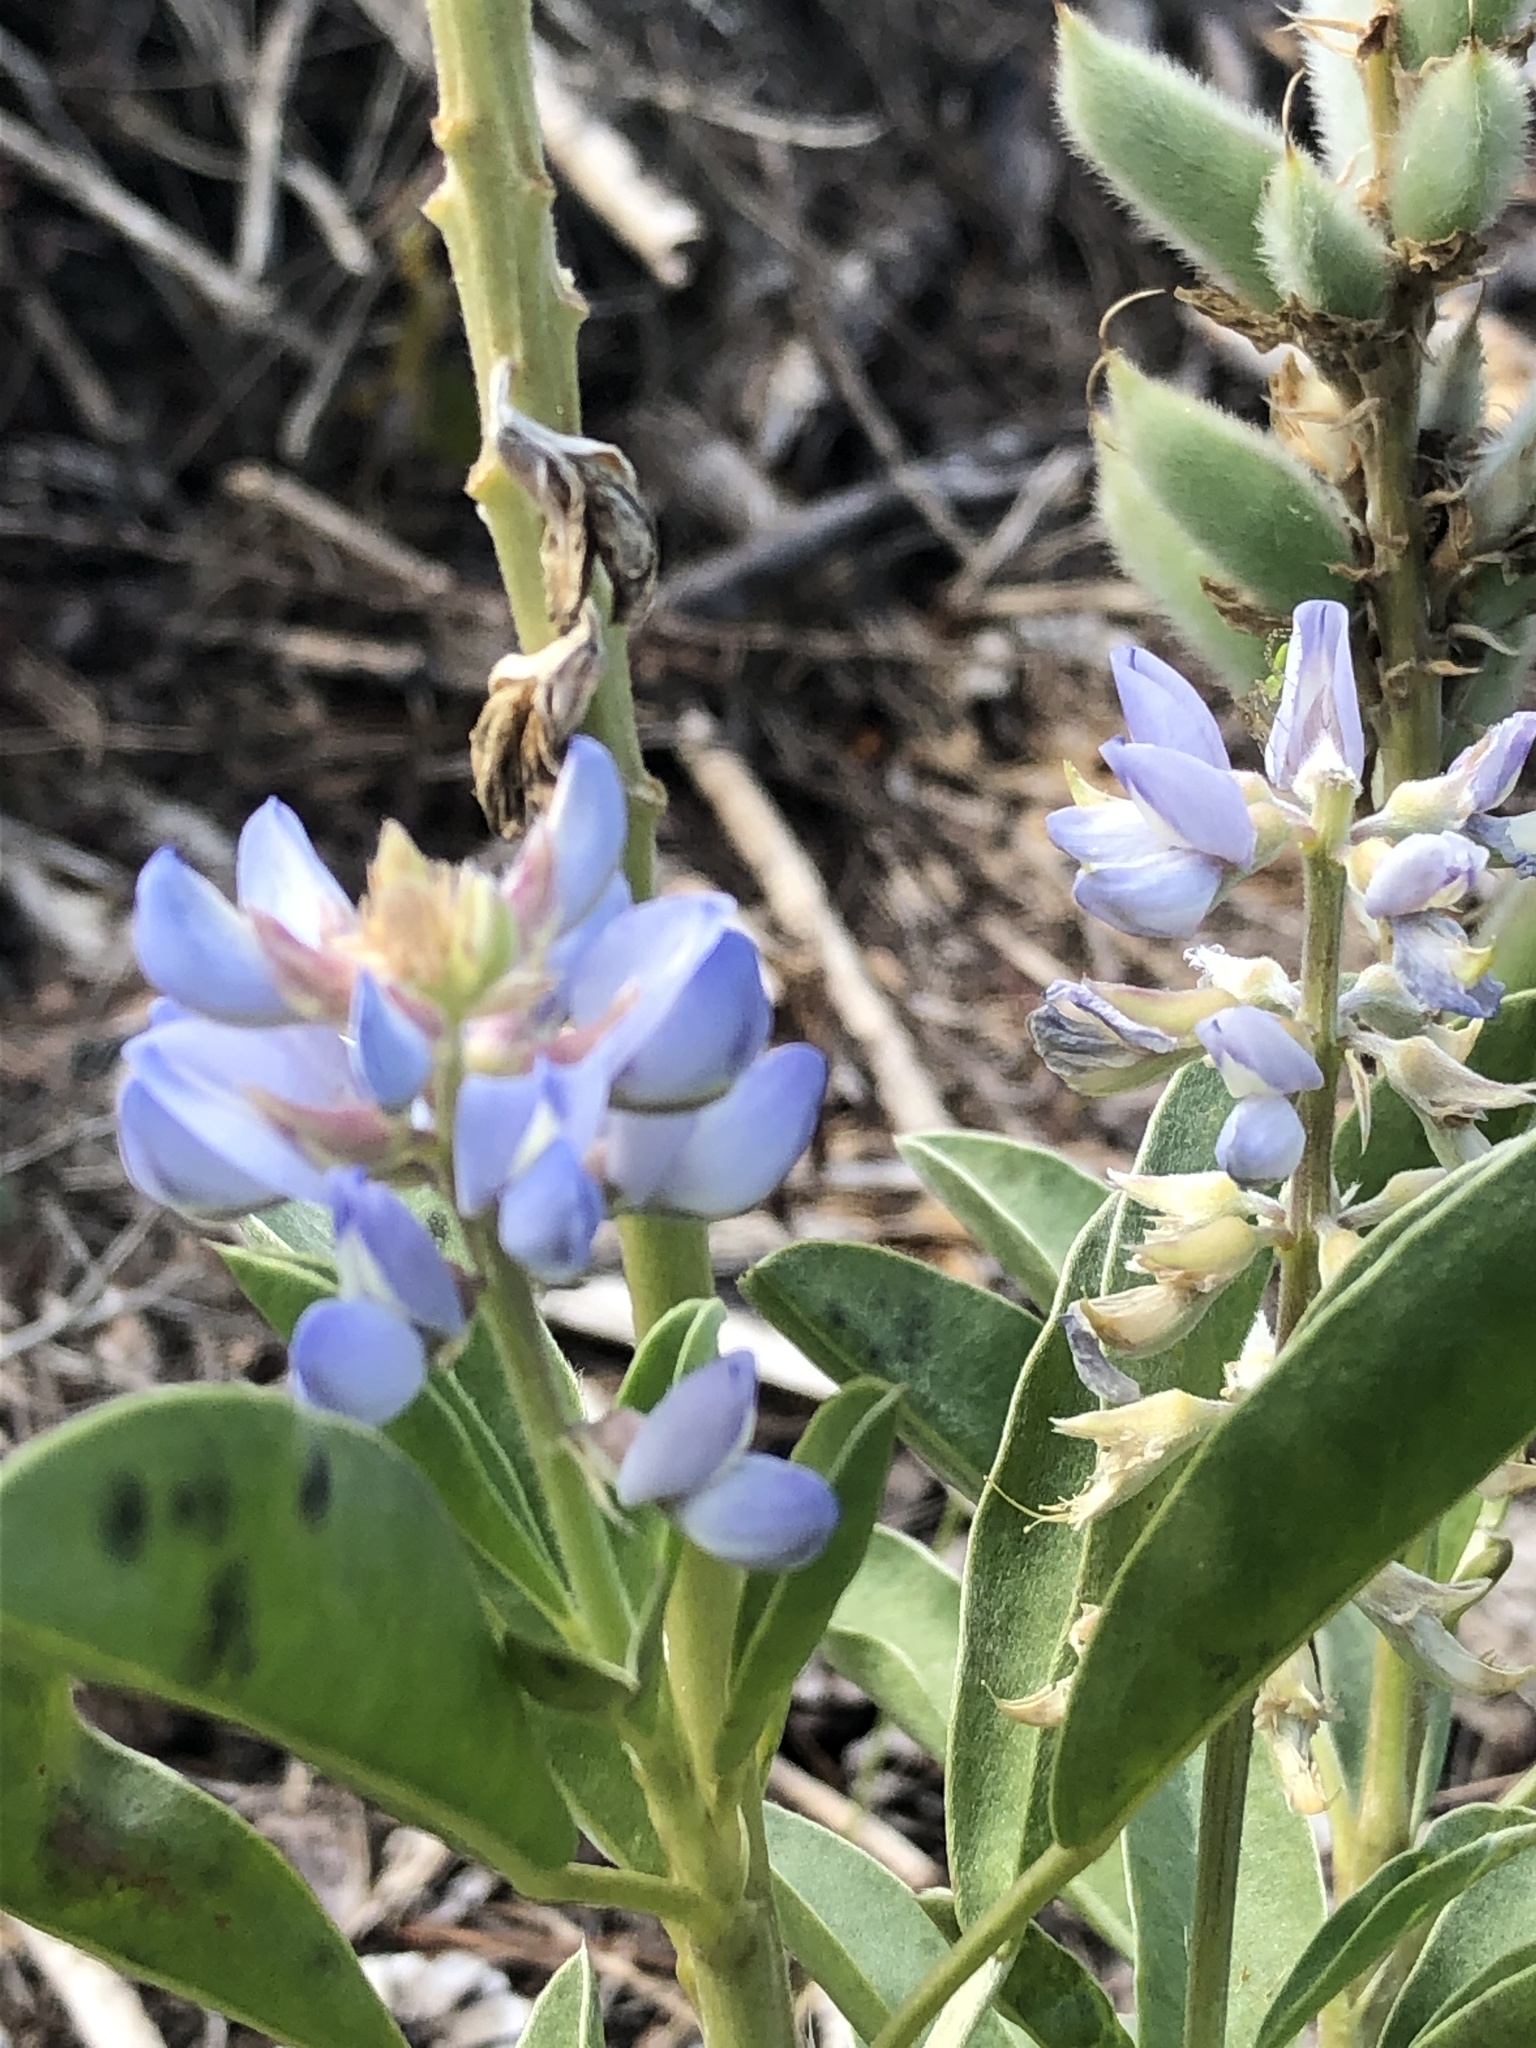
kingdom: Plantae
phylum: Tracheophyta
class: Magnoliopsida
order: Fabales
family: Fabaceae
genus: Lupinus
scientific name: Lupinus
